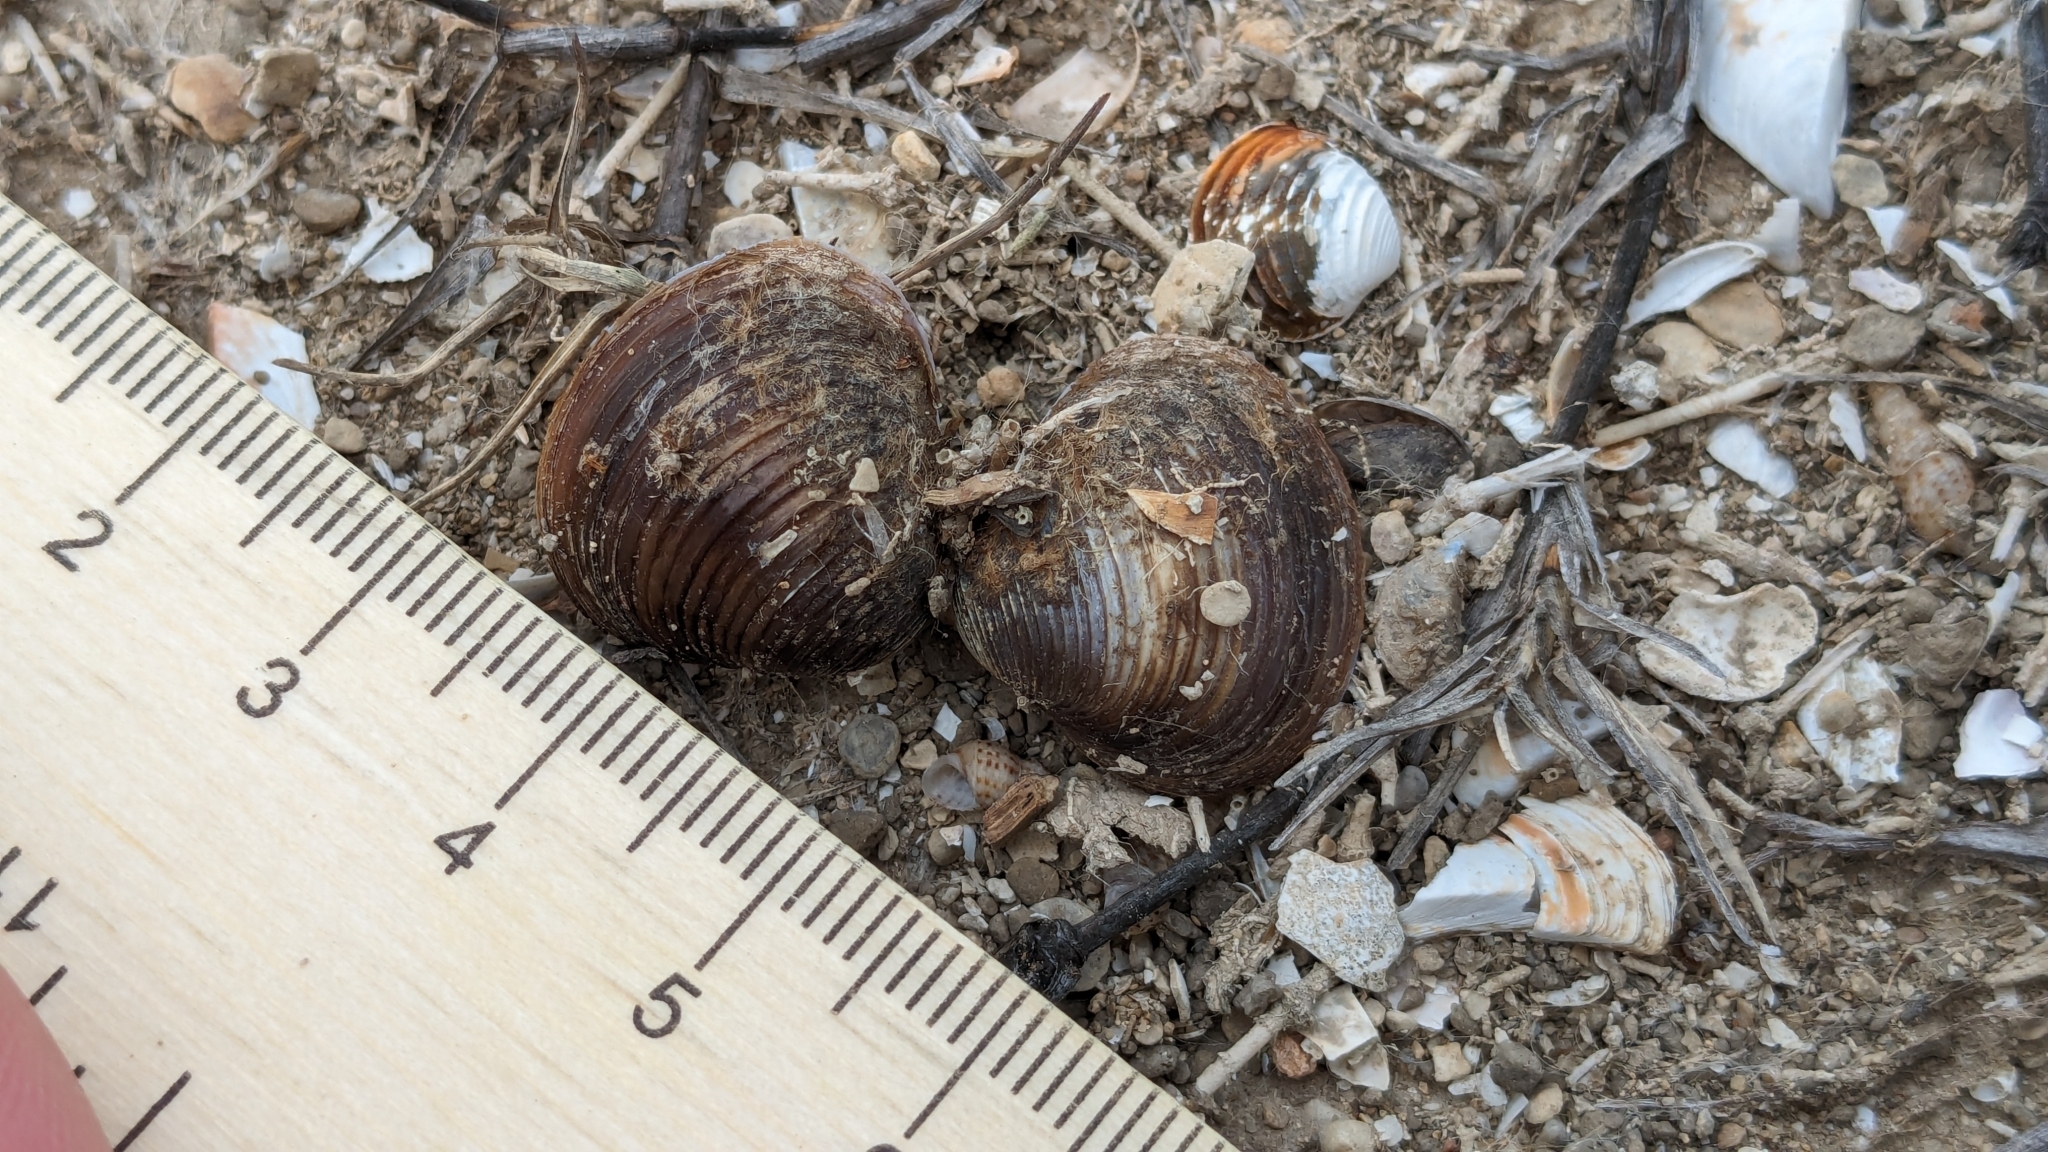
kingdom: Animalia
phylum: Mollusca
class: Bivalvia
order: Venerida
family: Cyrenidae
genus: Corbicula
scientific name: Corbicula fluminea
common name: Asian clam
